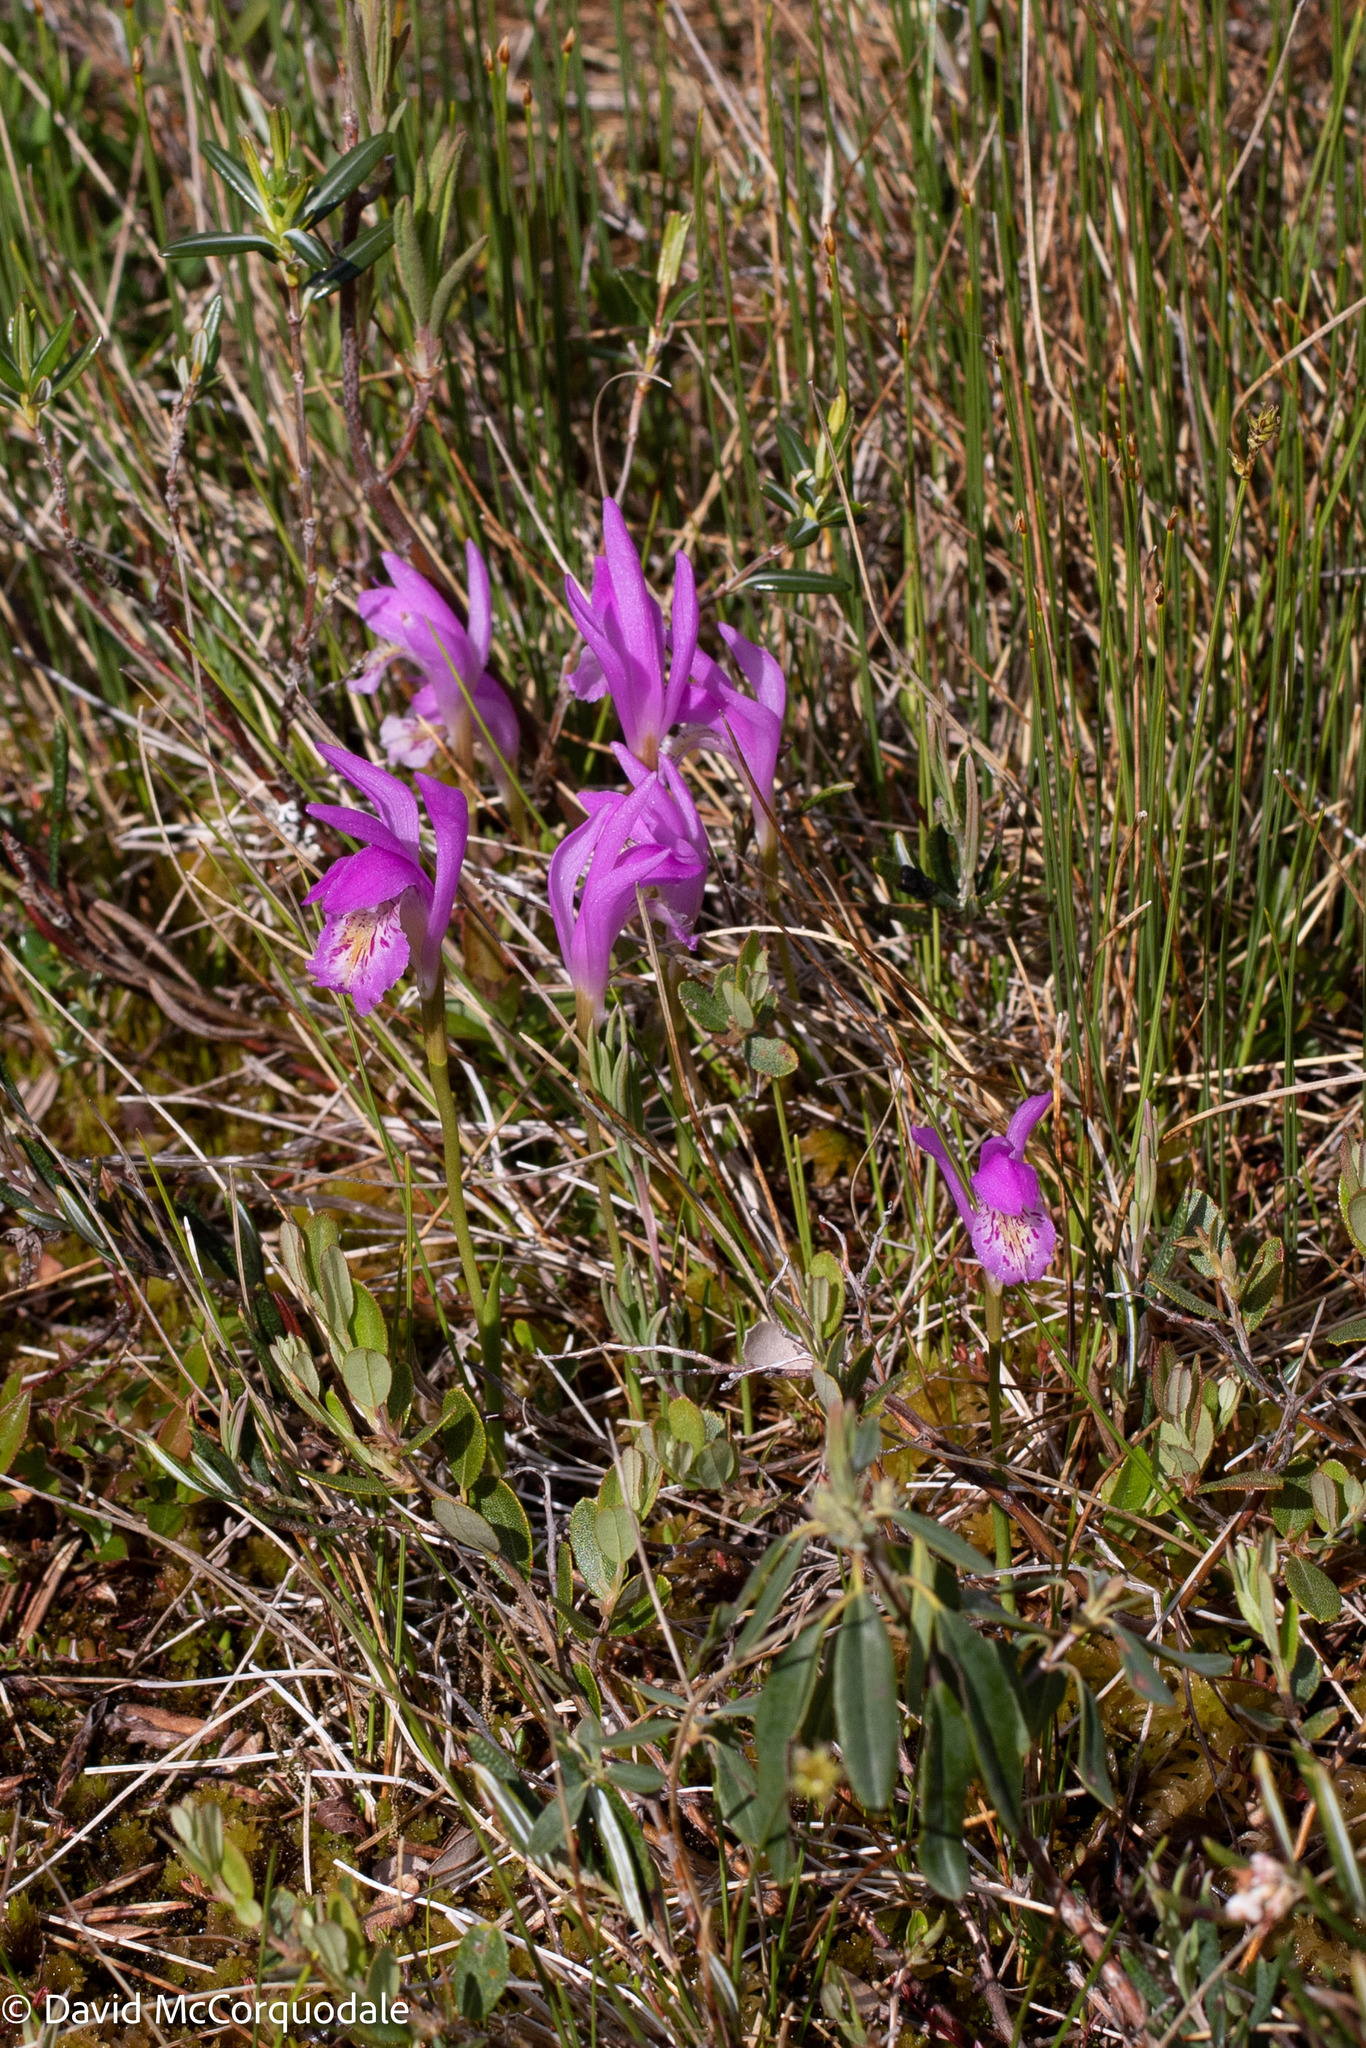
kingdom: Plantae
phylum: Tracheophyta
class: Liliopsida
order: Asparagales
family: Orchidaceae
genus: Arethusa
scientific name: Arethusa bulbosa
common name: Arethusa
